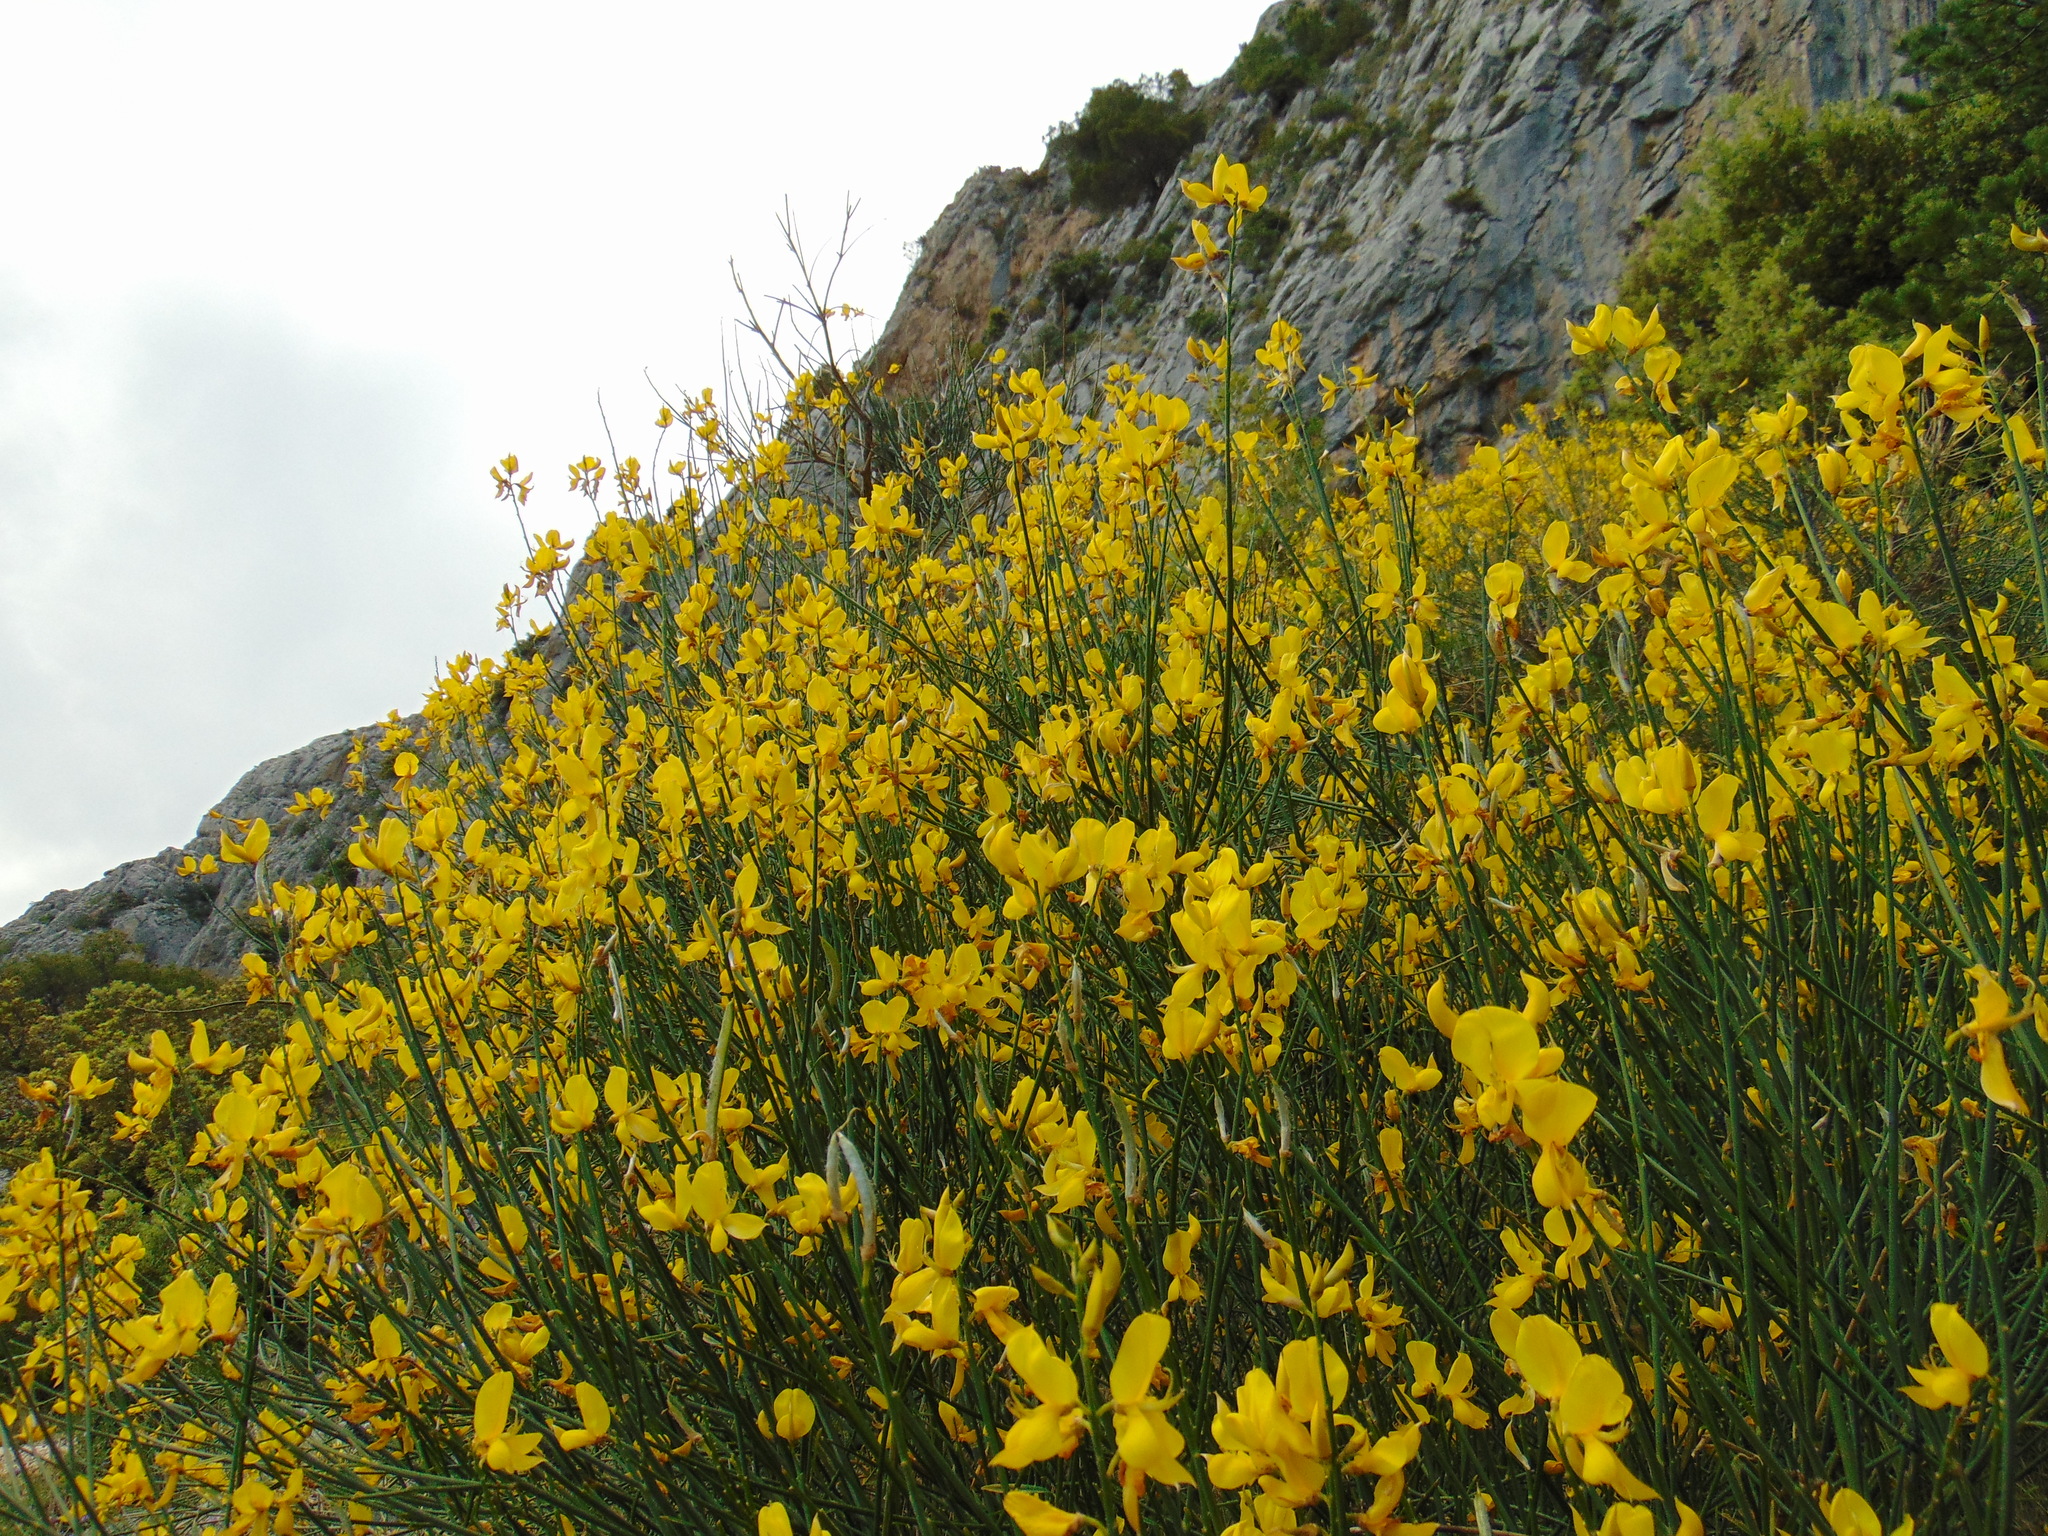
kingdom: Plantae
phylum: Tracheophyta
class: Magnoliopsida
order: Fabales
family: Fabaceae
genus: Spartium
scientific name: Spartium junceum
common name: Spanish broom
